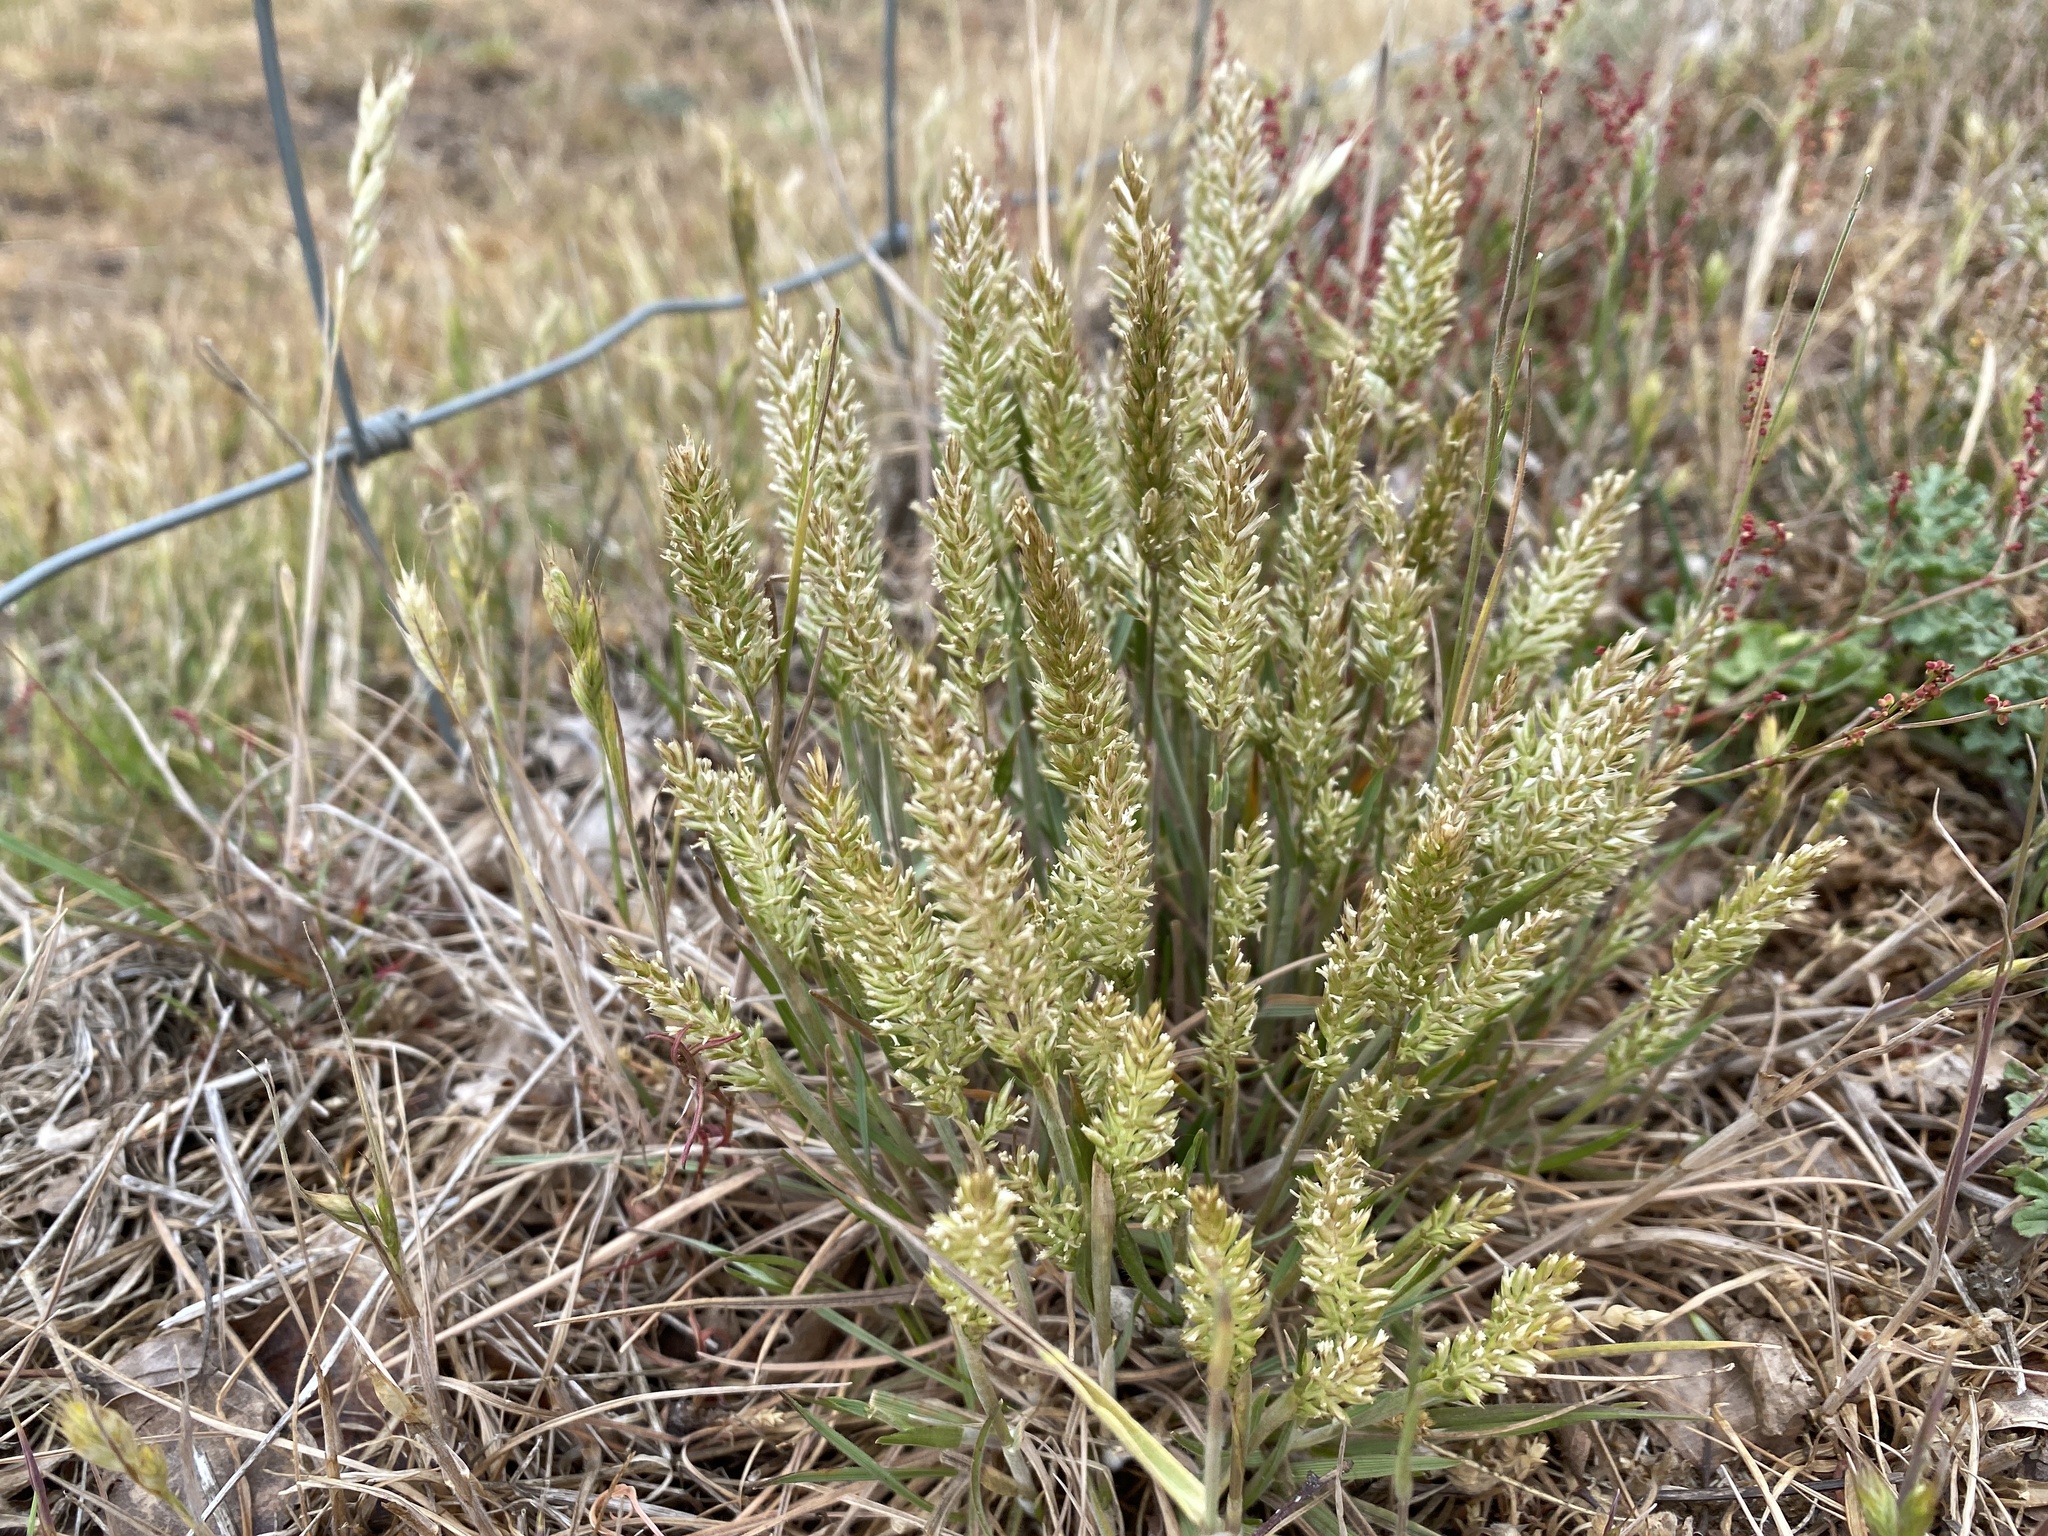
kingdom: Plantae
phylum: Tracheophyta
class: Liliopsida
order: Poales
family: Poaceae
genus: Koeleria
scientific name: Koeleria macrantha
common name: Crested hair-grass
